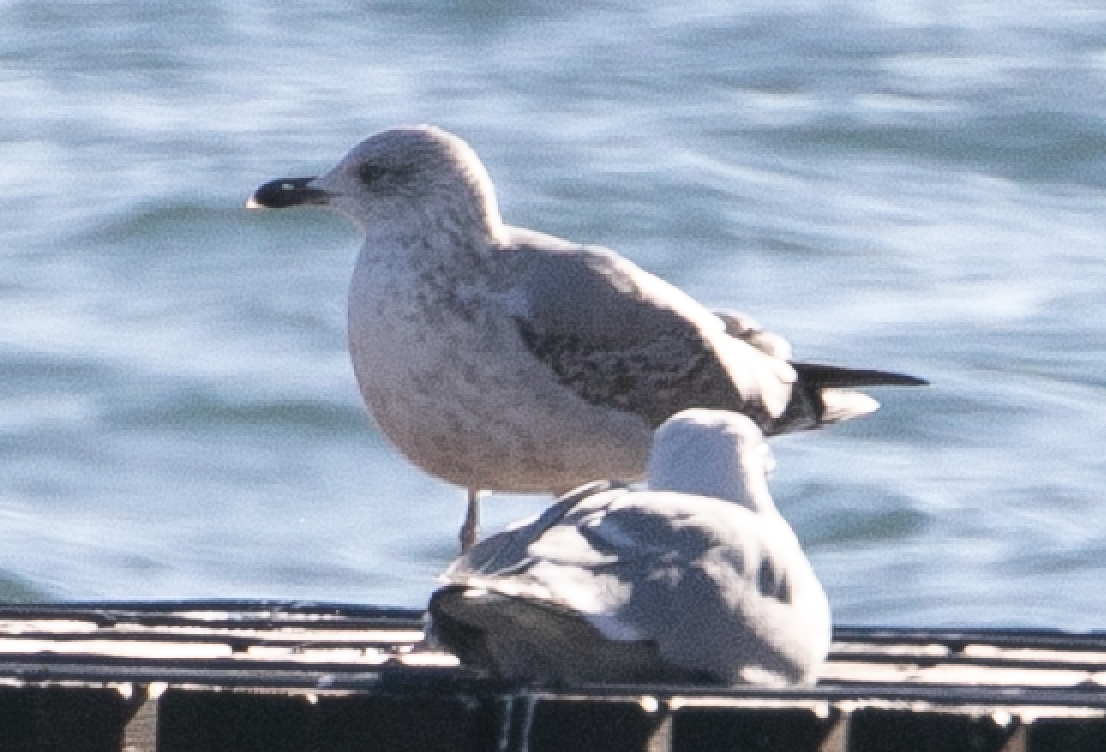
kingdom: Animalia
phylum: Chordata
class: Aves
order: Charadriiformes
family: Laridae
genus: Larus
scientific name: Larus michahellis
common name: Yellow-legged gull
